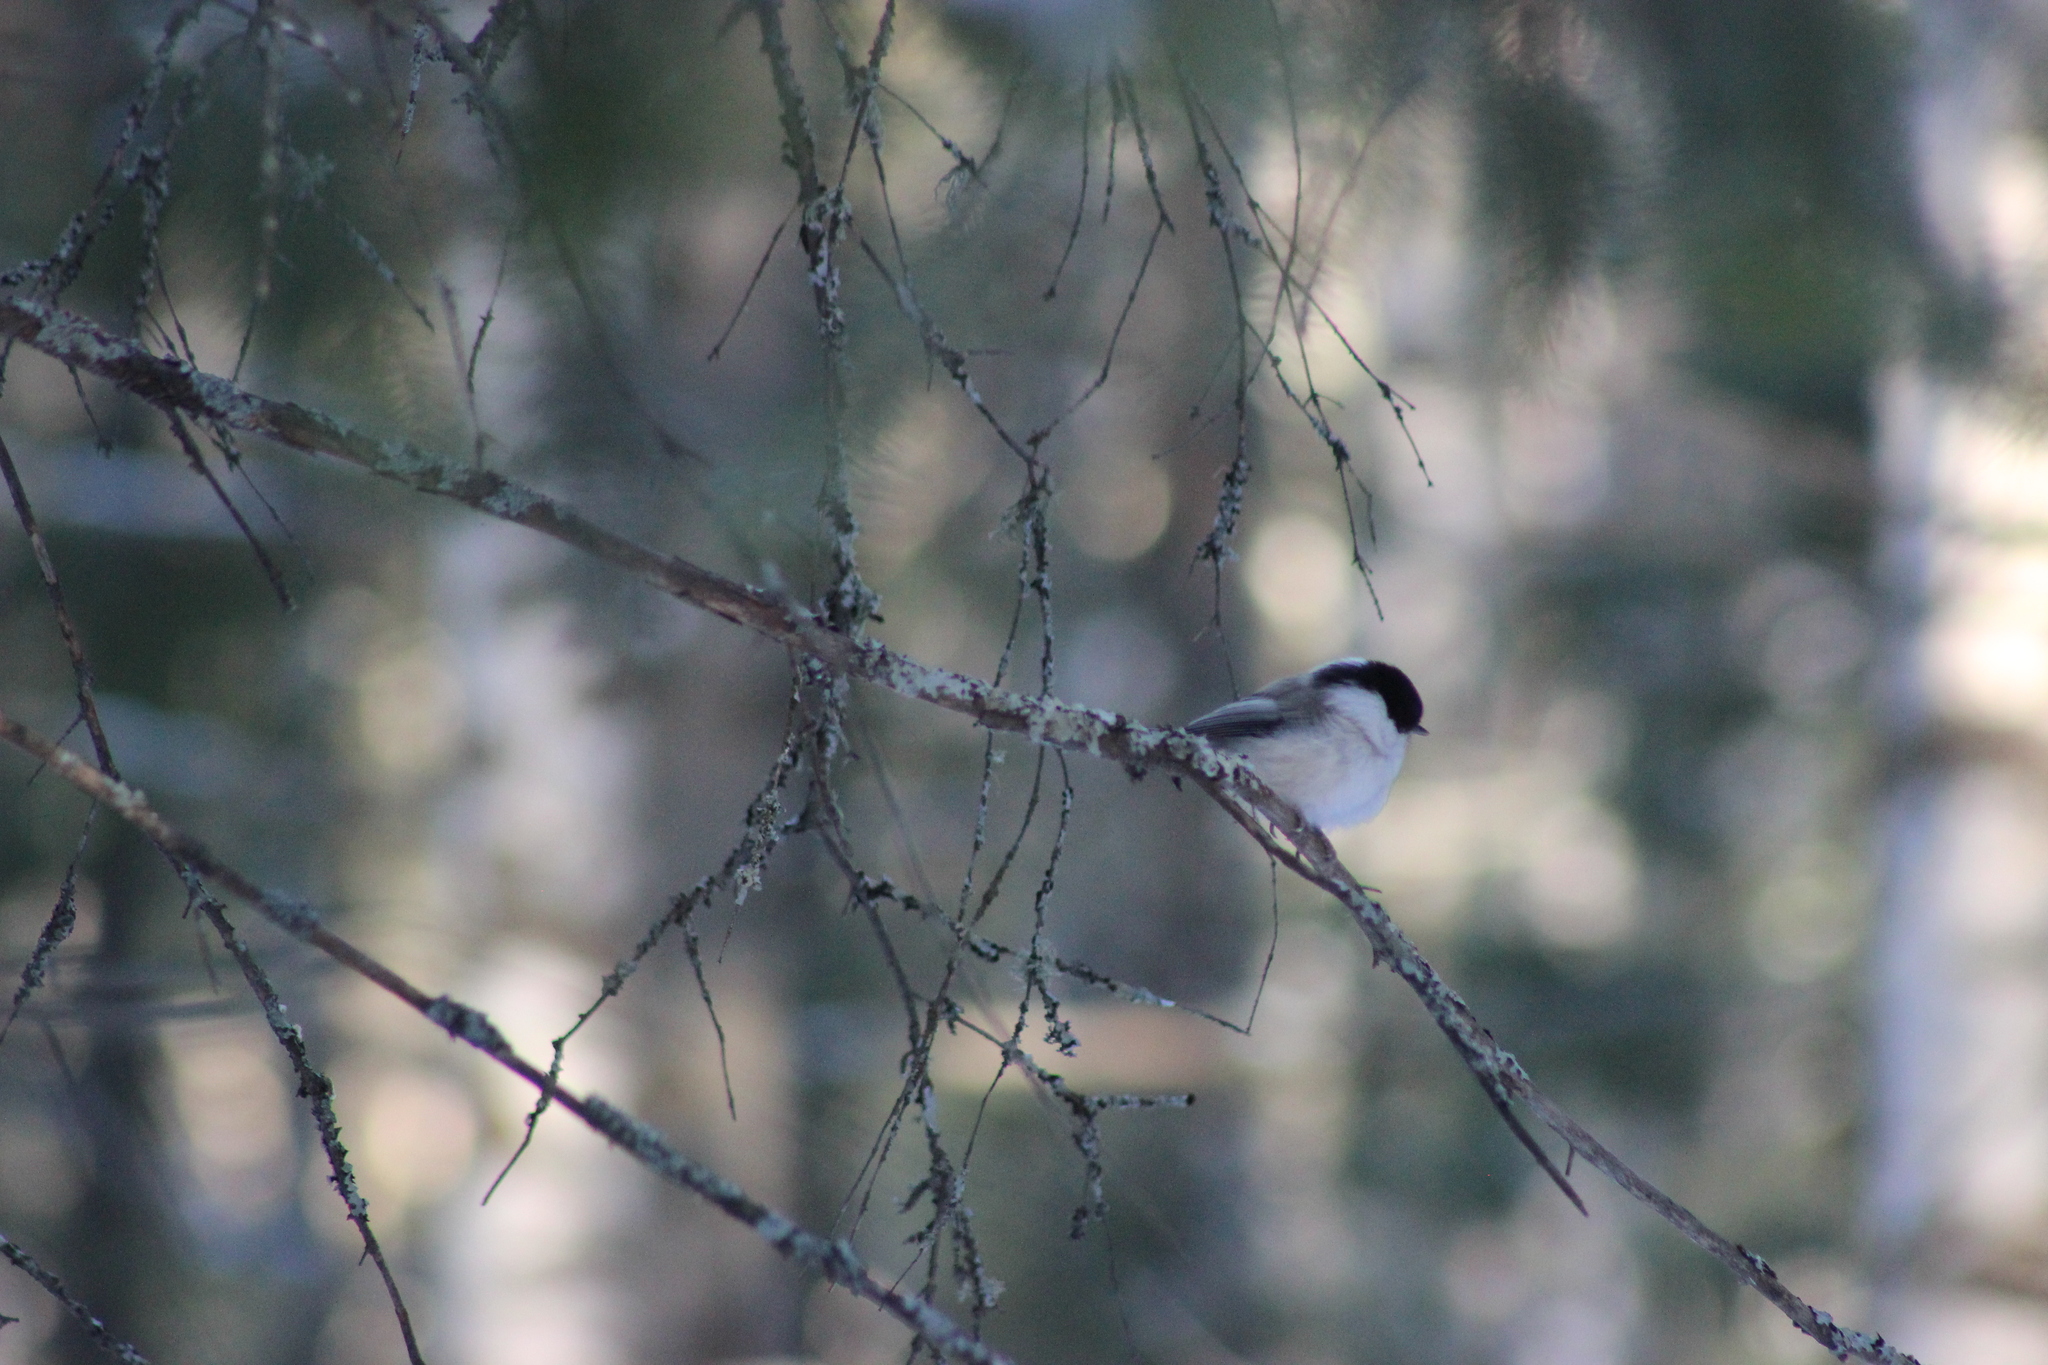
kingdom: Animalia
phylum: Chordata
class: Aves
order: Passeriformes
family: Paridae
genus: Poecile
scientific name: Poecile montanus
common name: Willow tit
